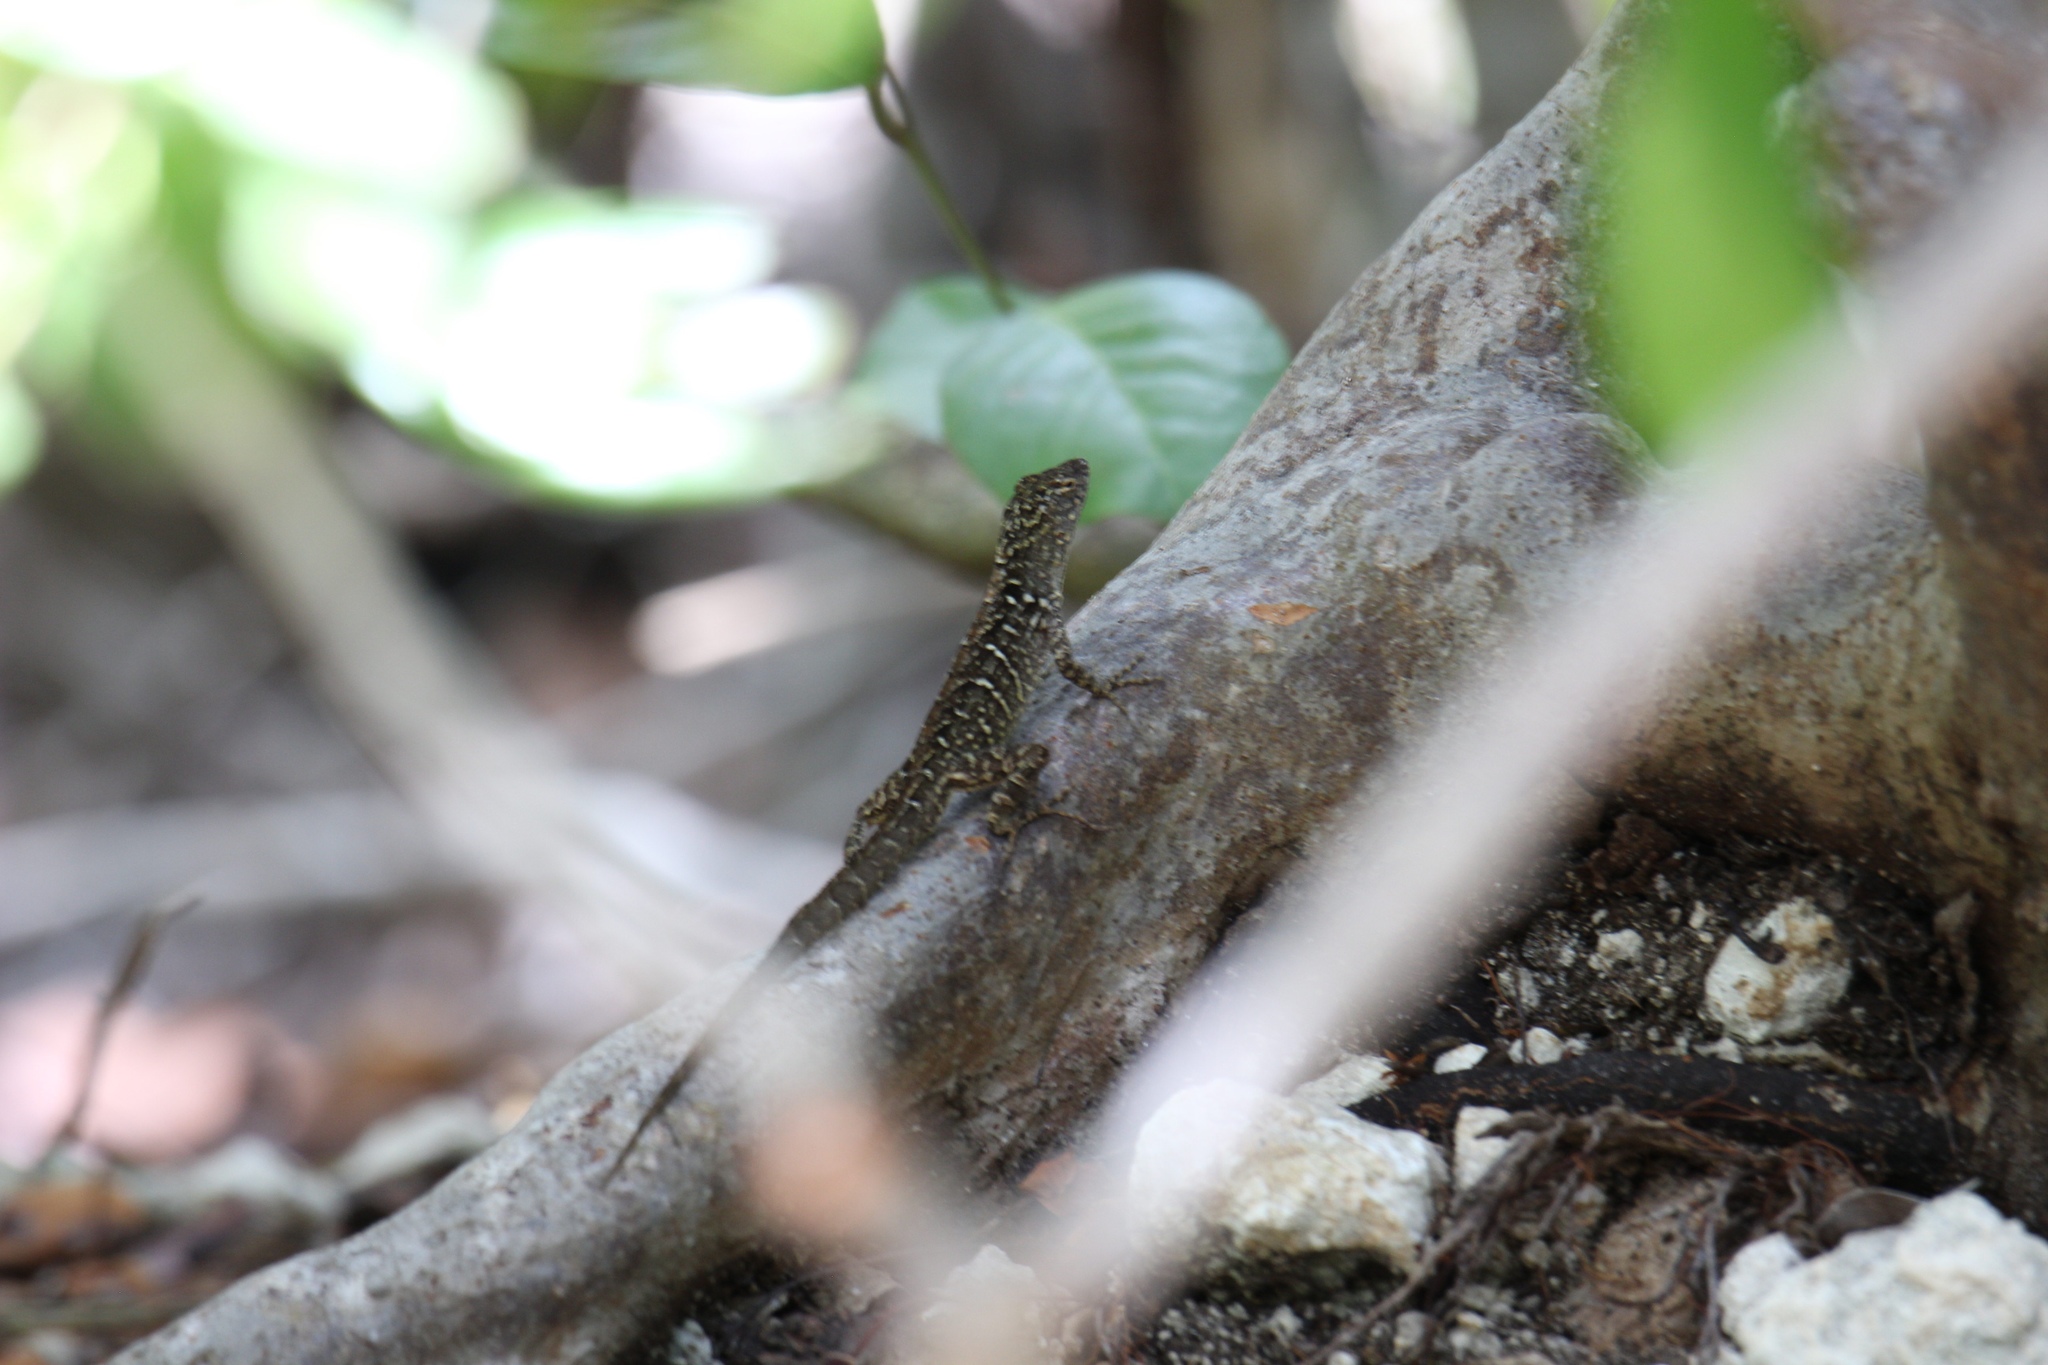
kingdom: Animalia
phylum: Chordata
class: Squamata
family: Dactyloidae
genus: Anolis
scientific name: Anolis sagrei
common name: Brown anole
